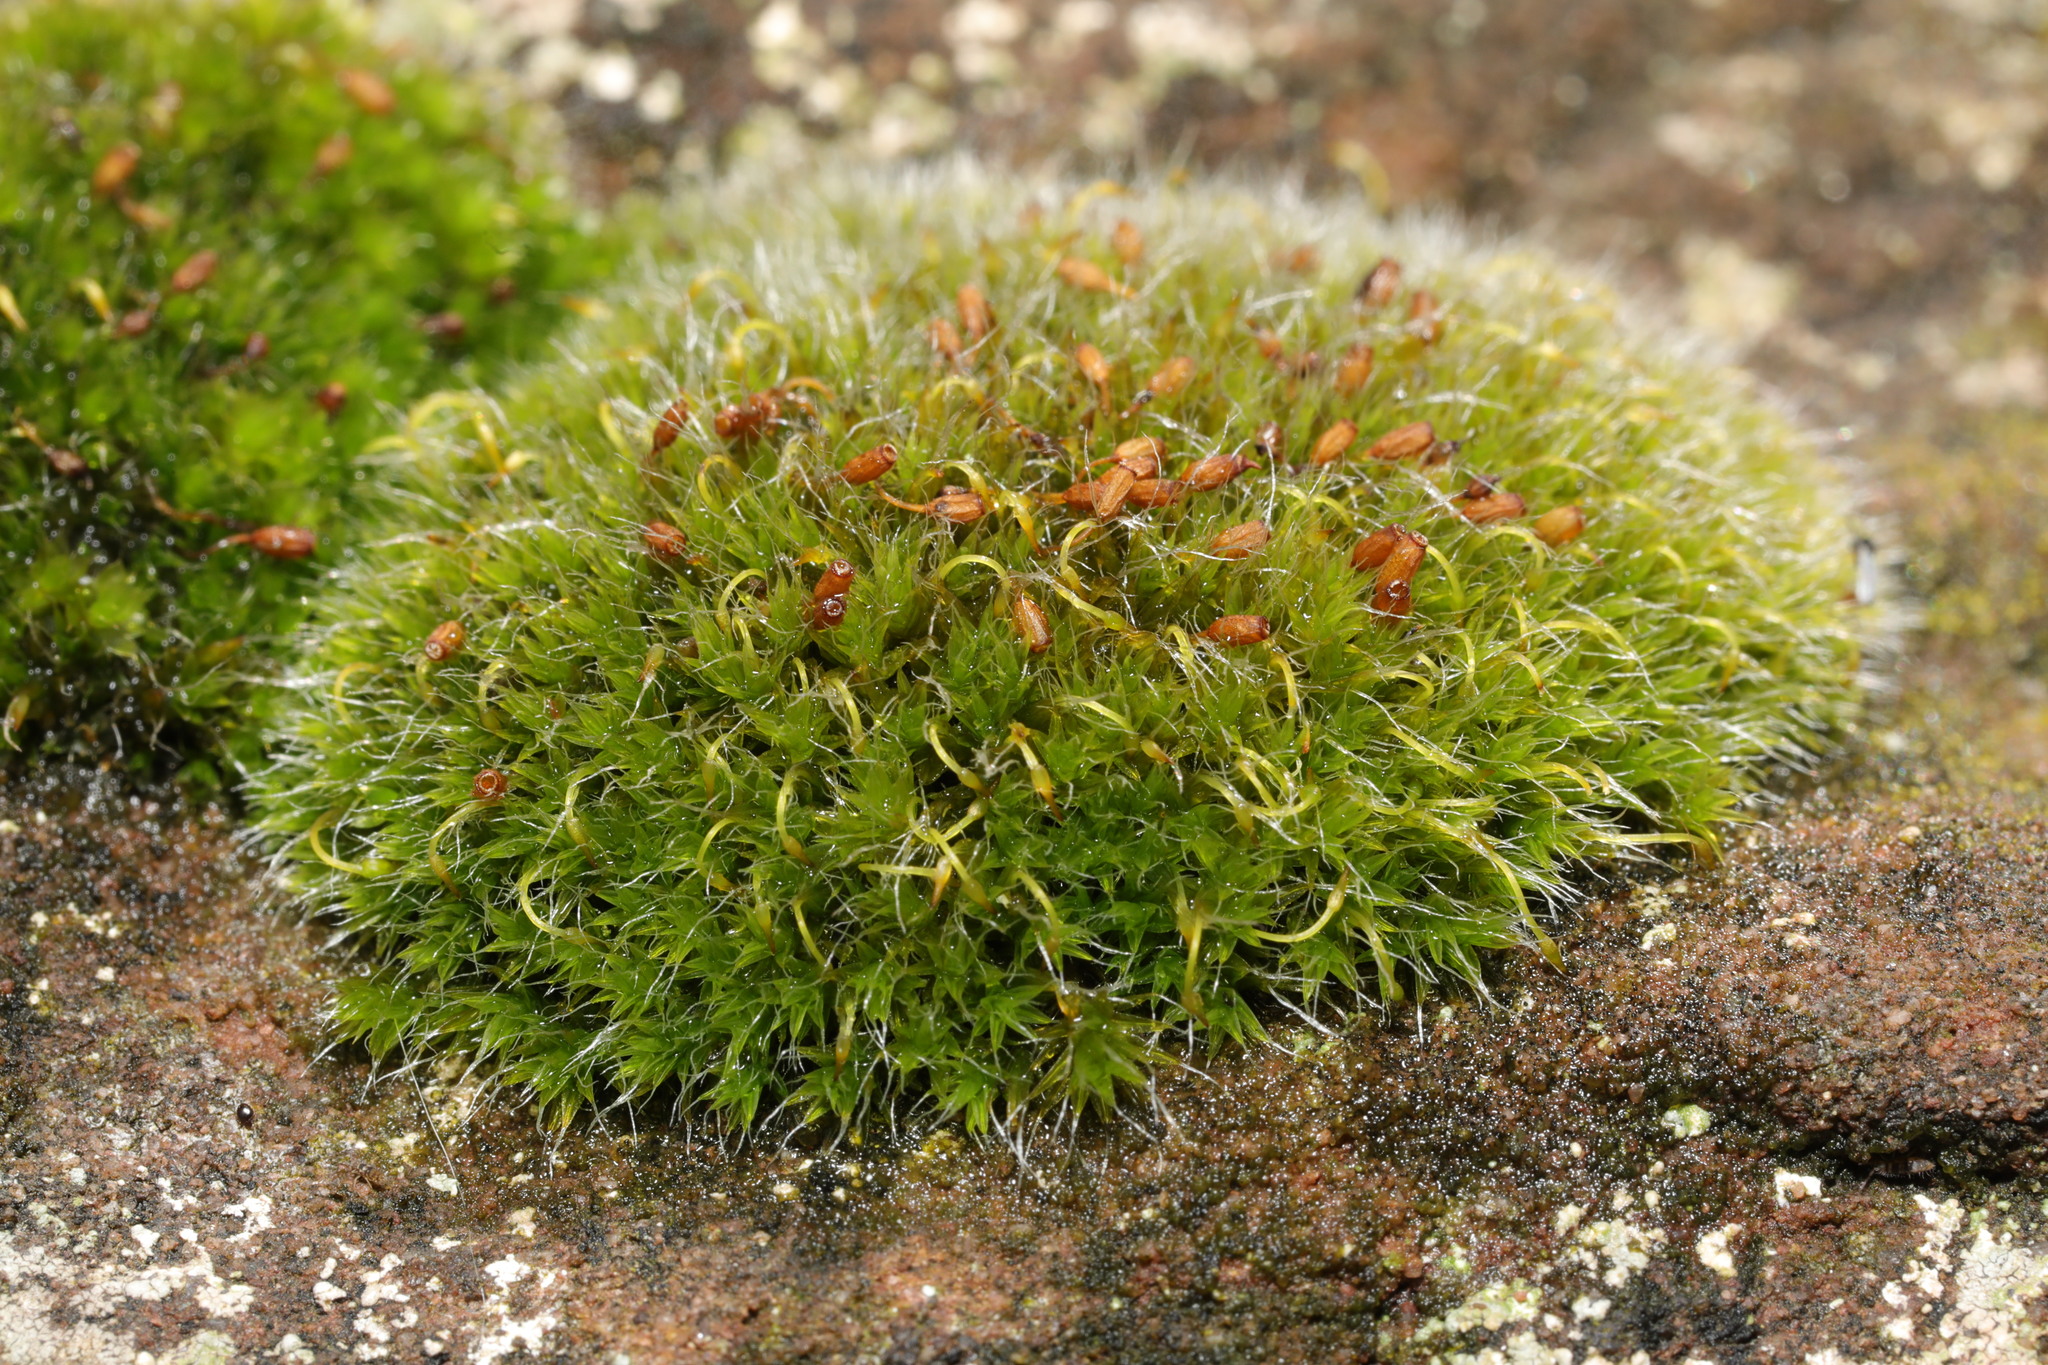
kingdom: Plantae
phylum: Bryophyta
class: Bryopsida
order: Grimmiales
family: Grimmiaceae
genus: Grimmia
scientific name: Grimmia pulvinata
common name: Grey-cushioned grimmia
